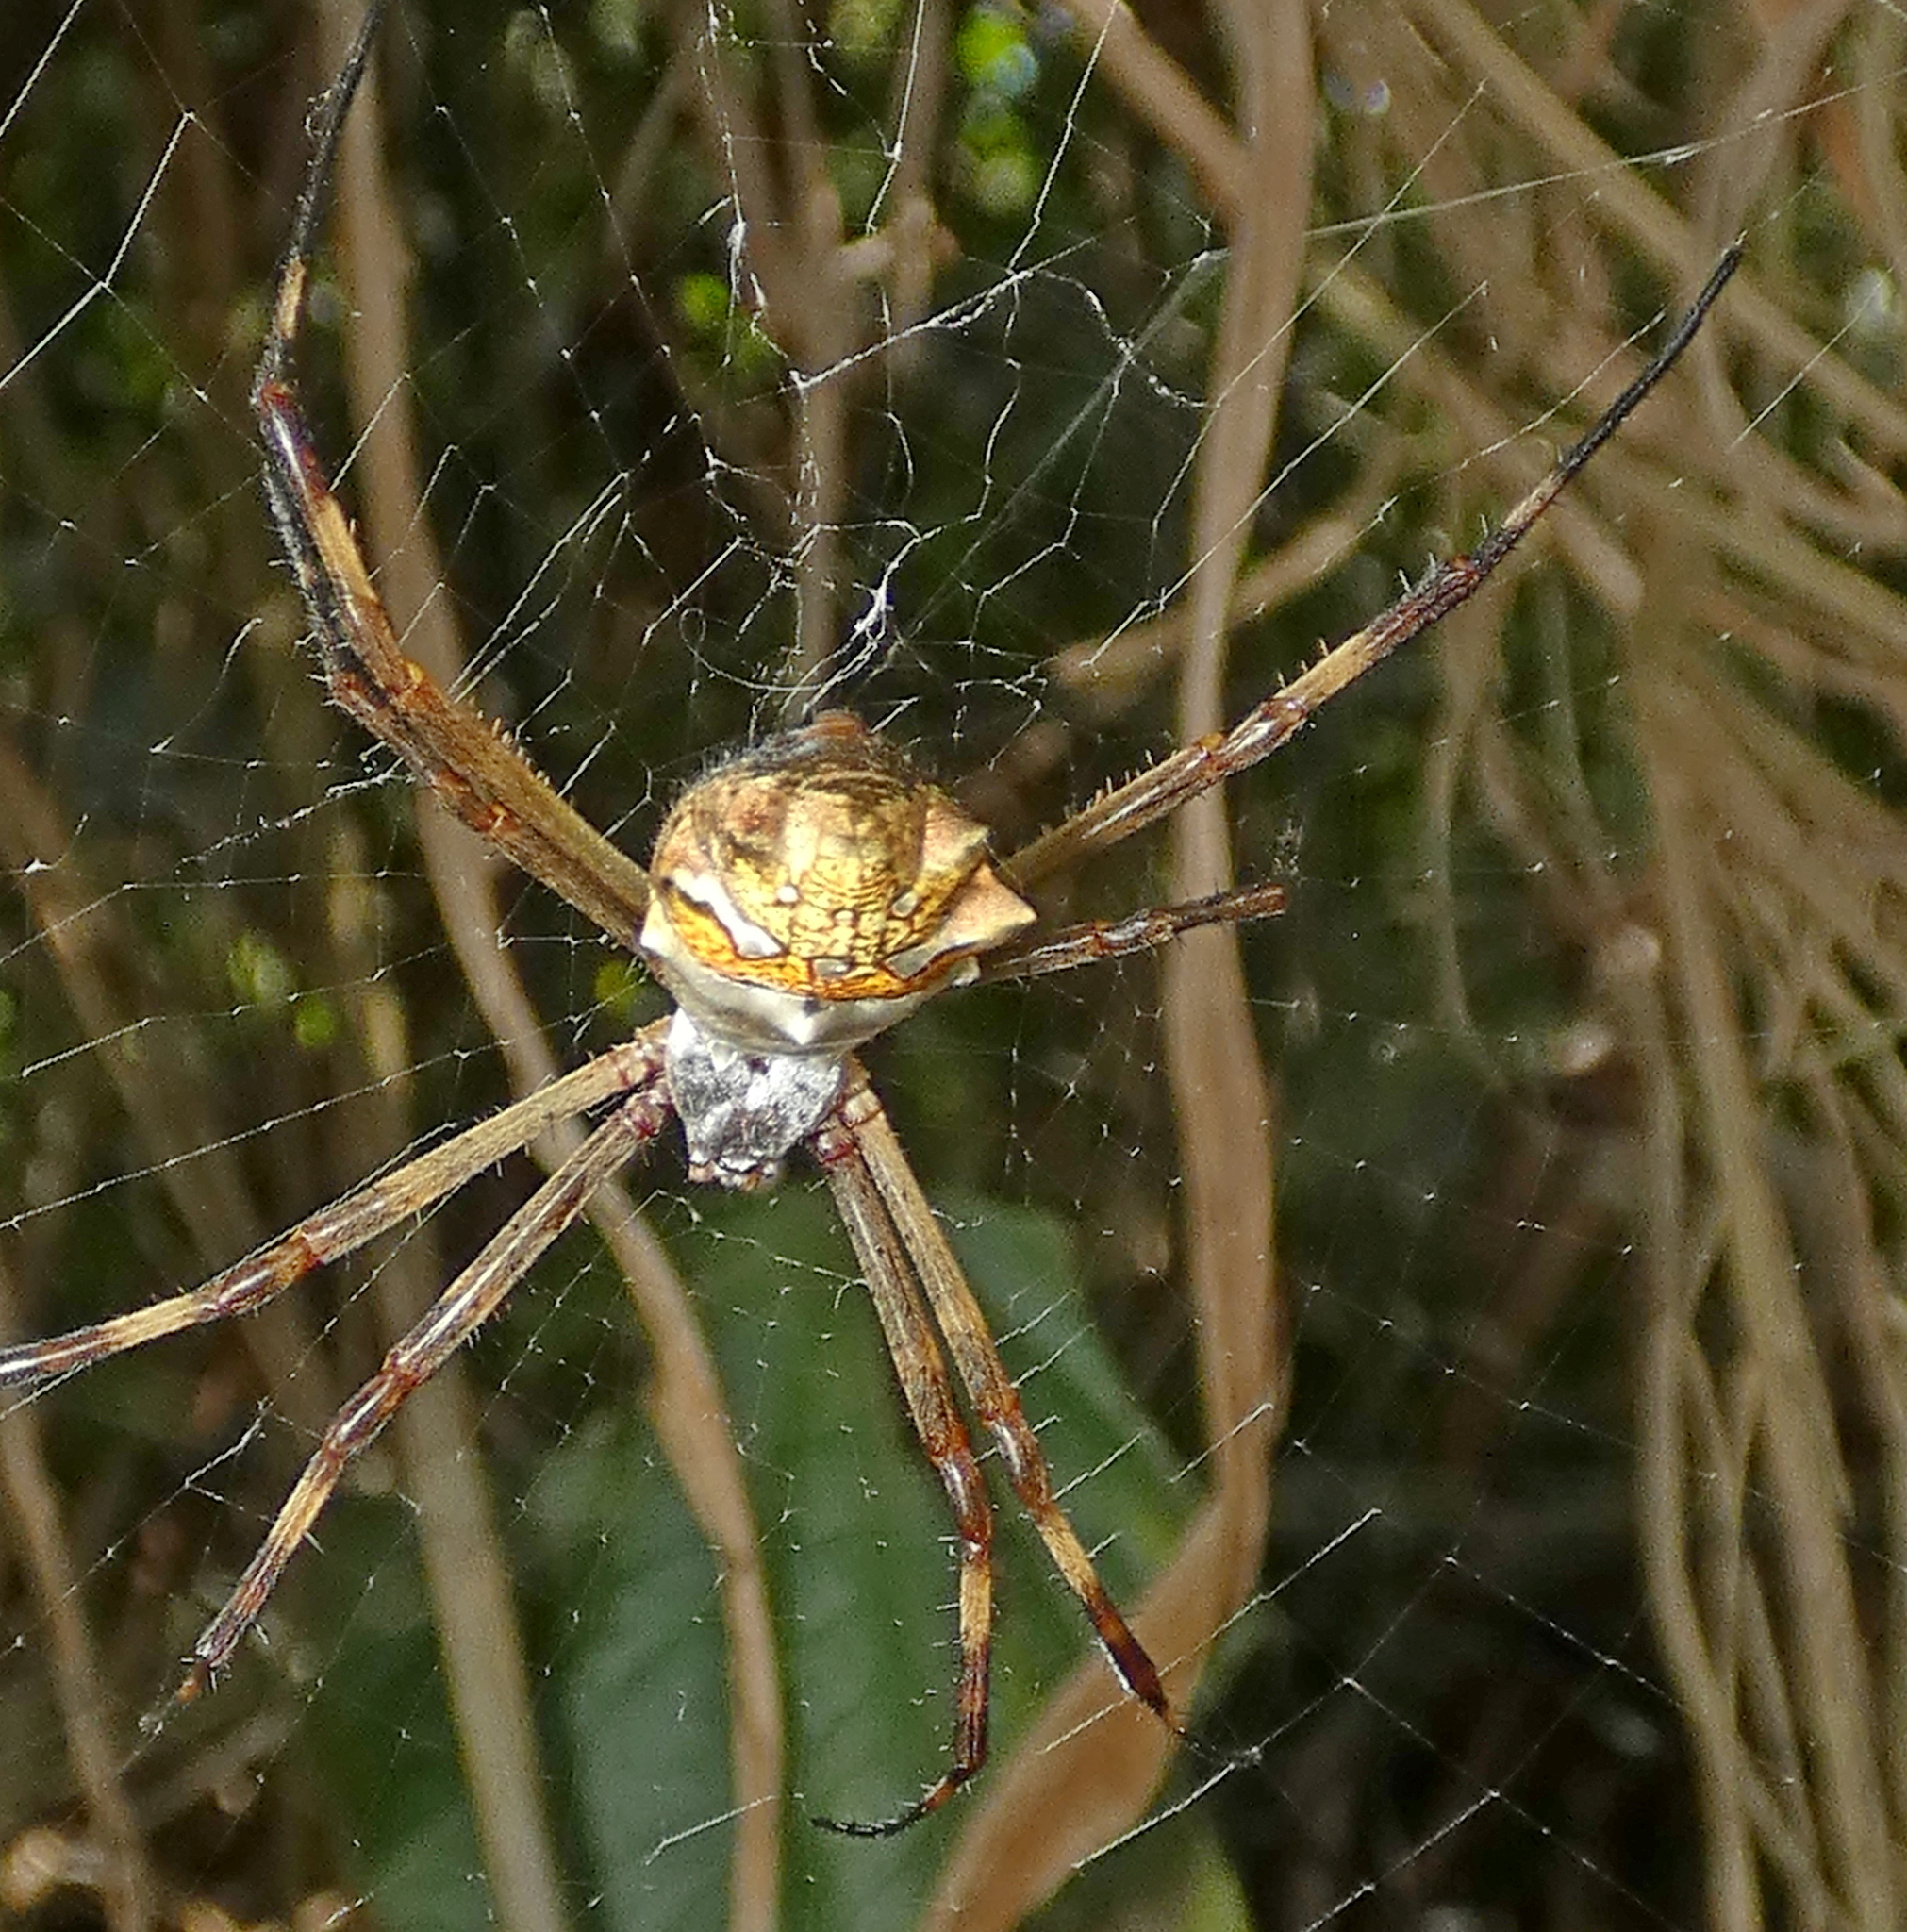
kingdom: Animalia
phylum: Arthropoda
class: Arachnida
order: Araneae
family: Araneidae
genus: Argiope
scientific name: Argiope argentata
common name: Orb weavers
